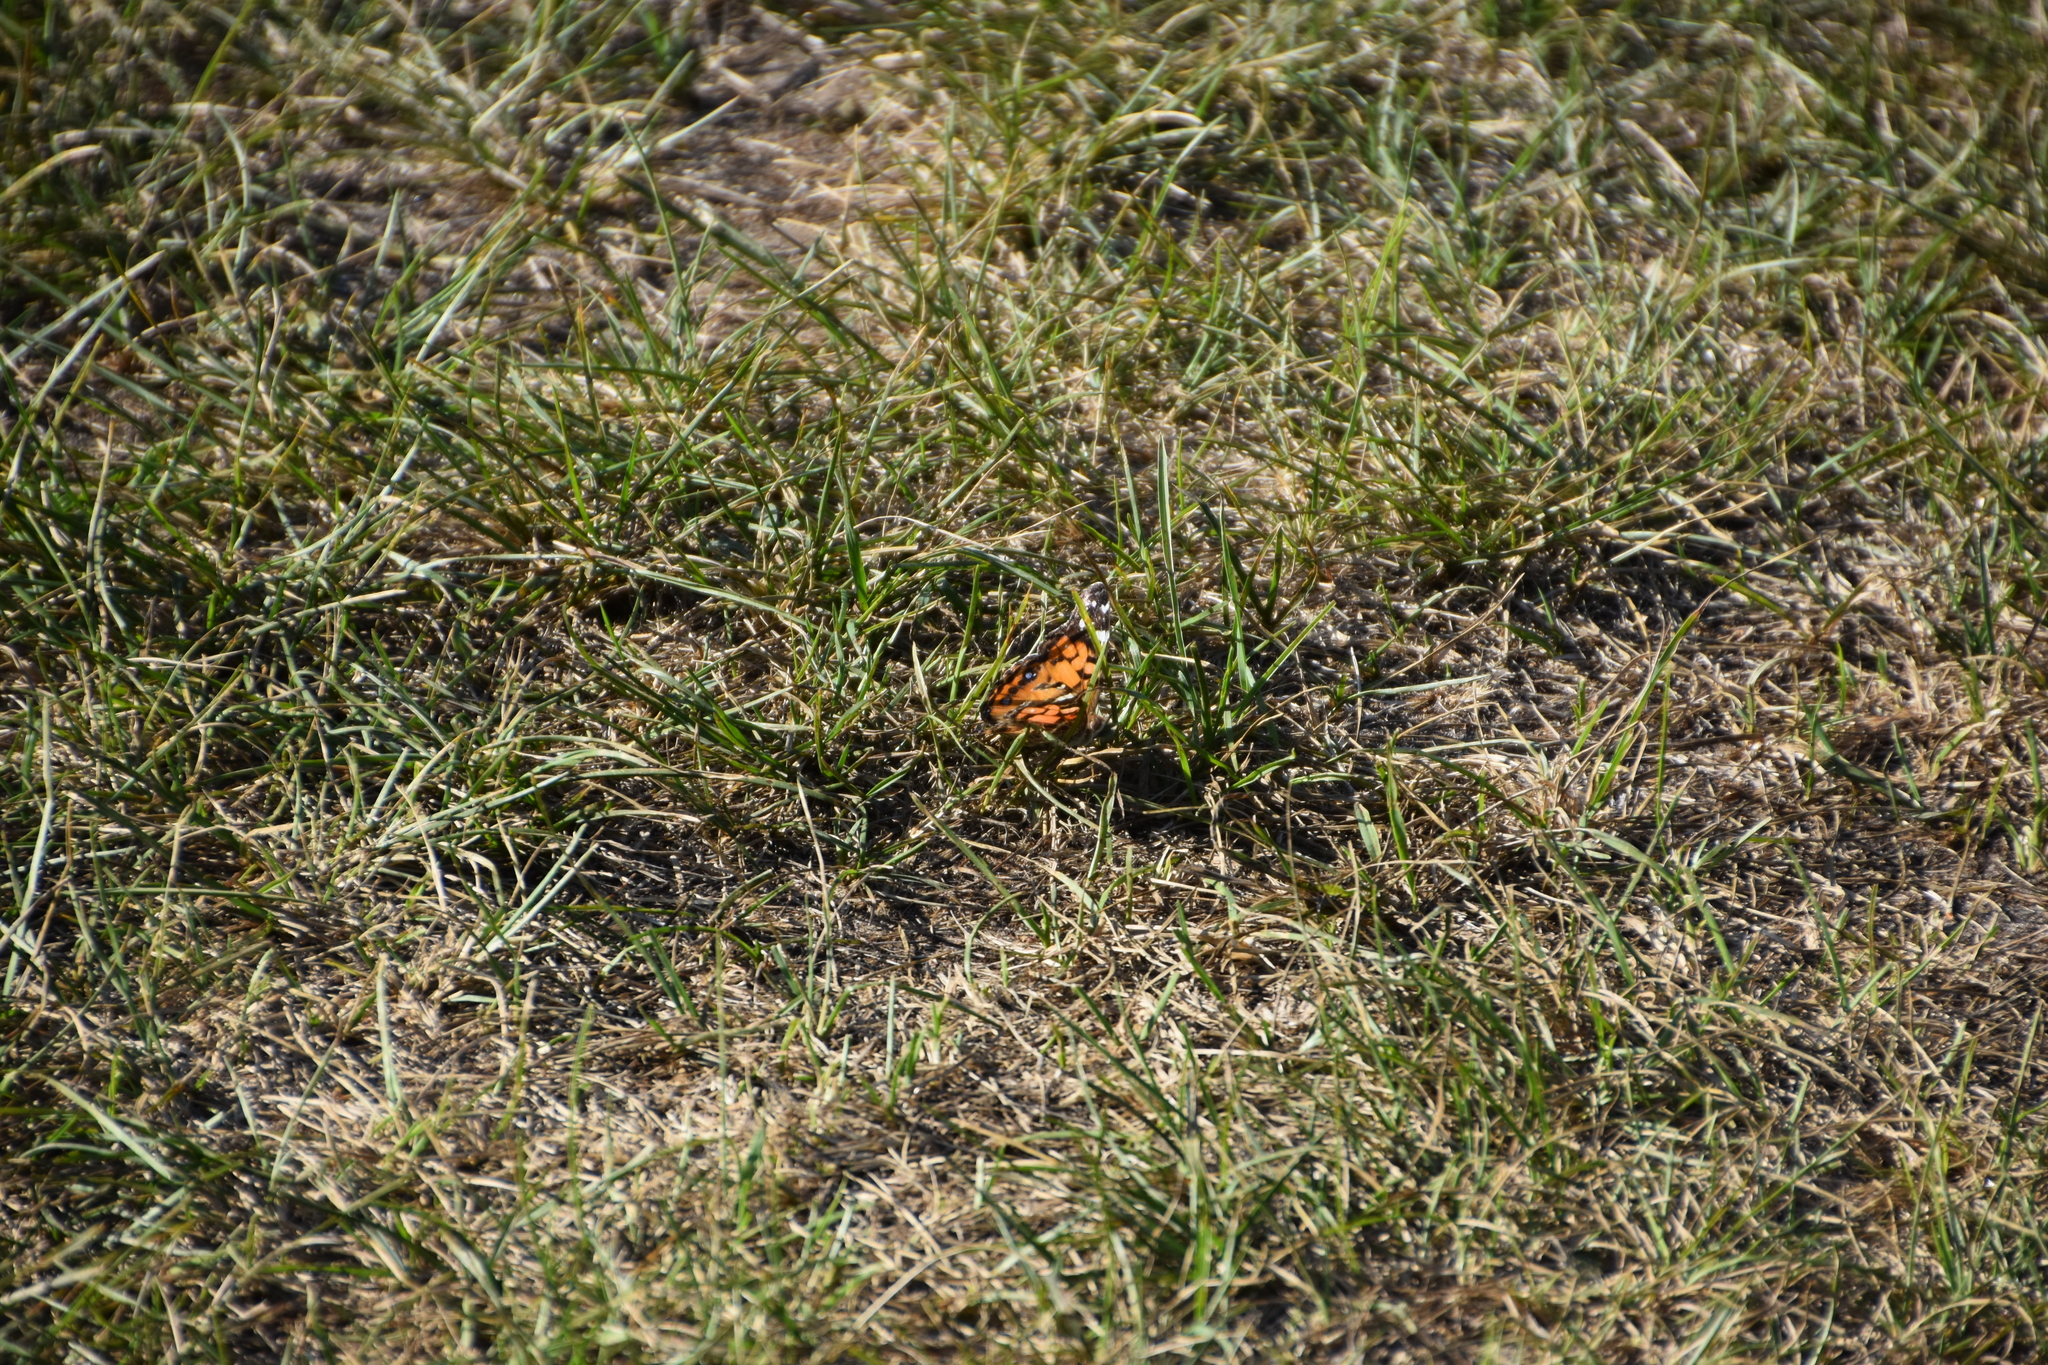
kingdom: Animalia
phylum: Arthropoda
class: Insecta
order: Lepidoptera
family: Nymphalidae
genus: Vanessa
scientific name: Vanessa virginiensis
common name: American lady
